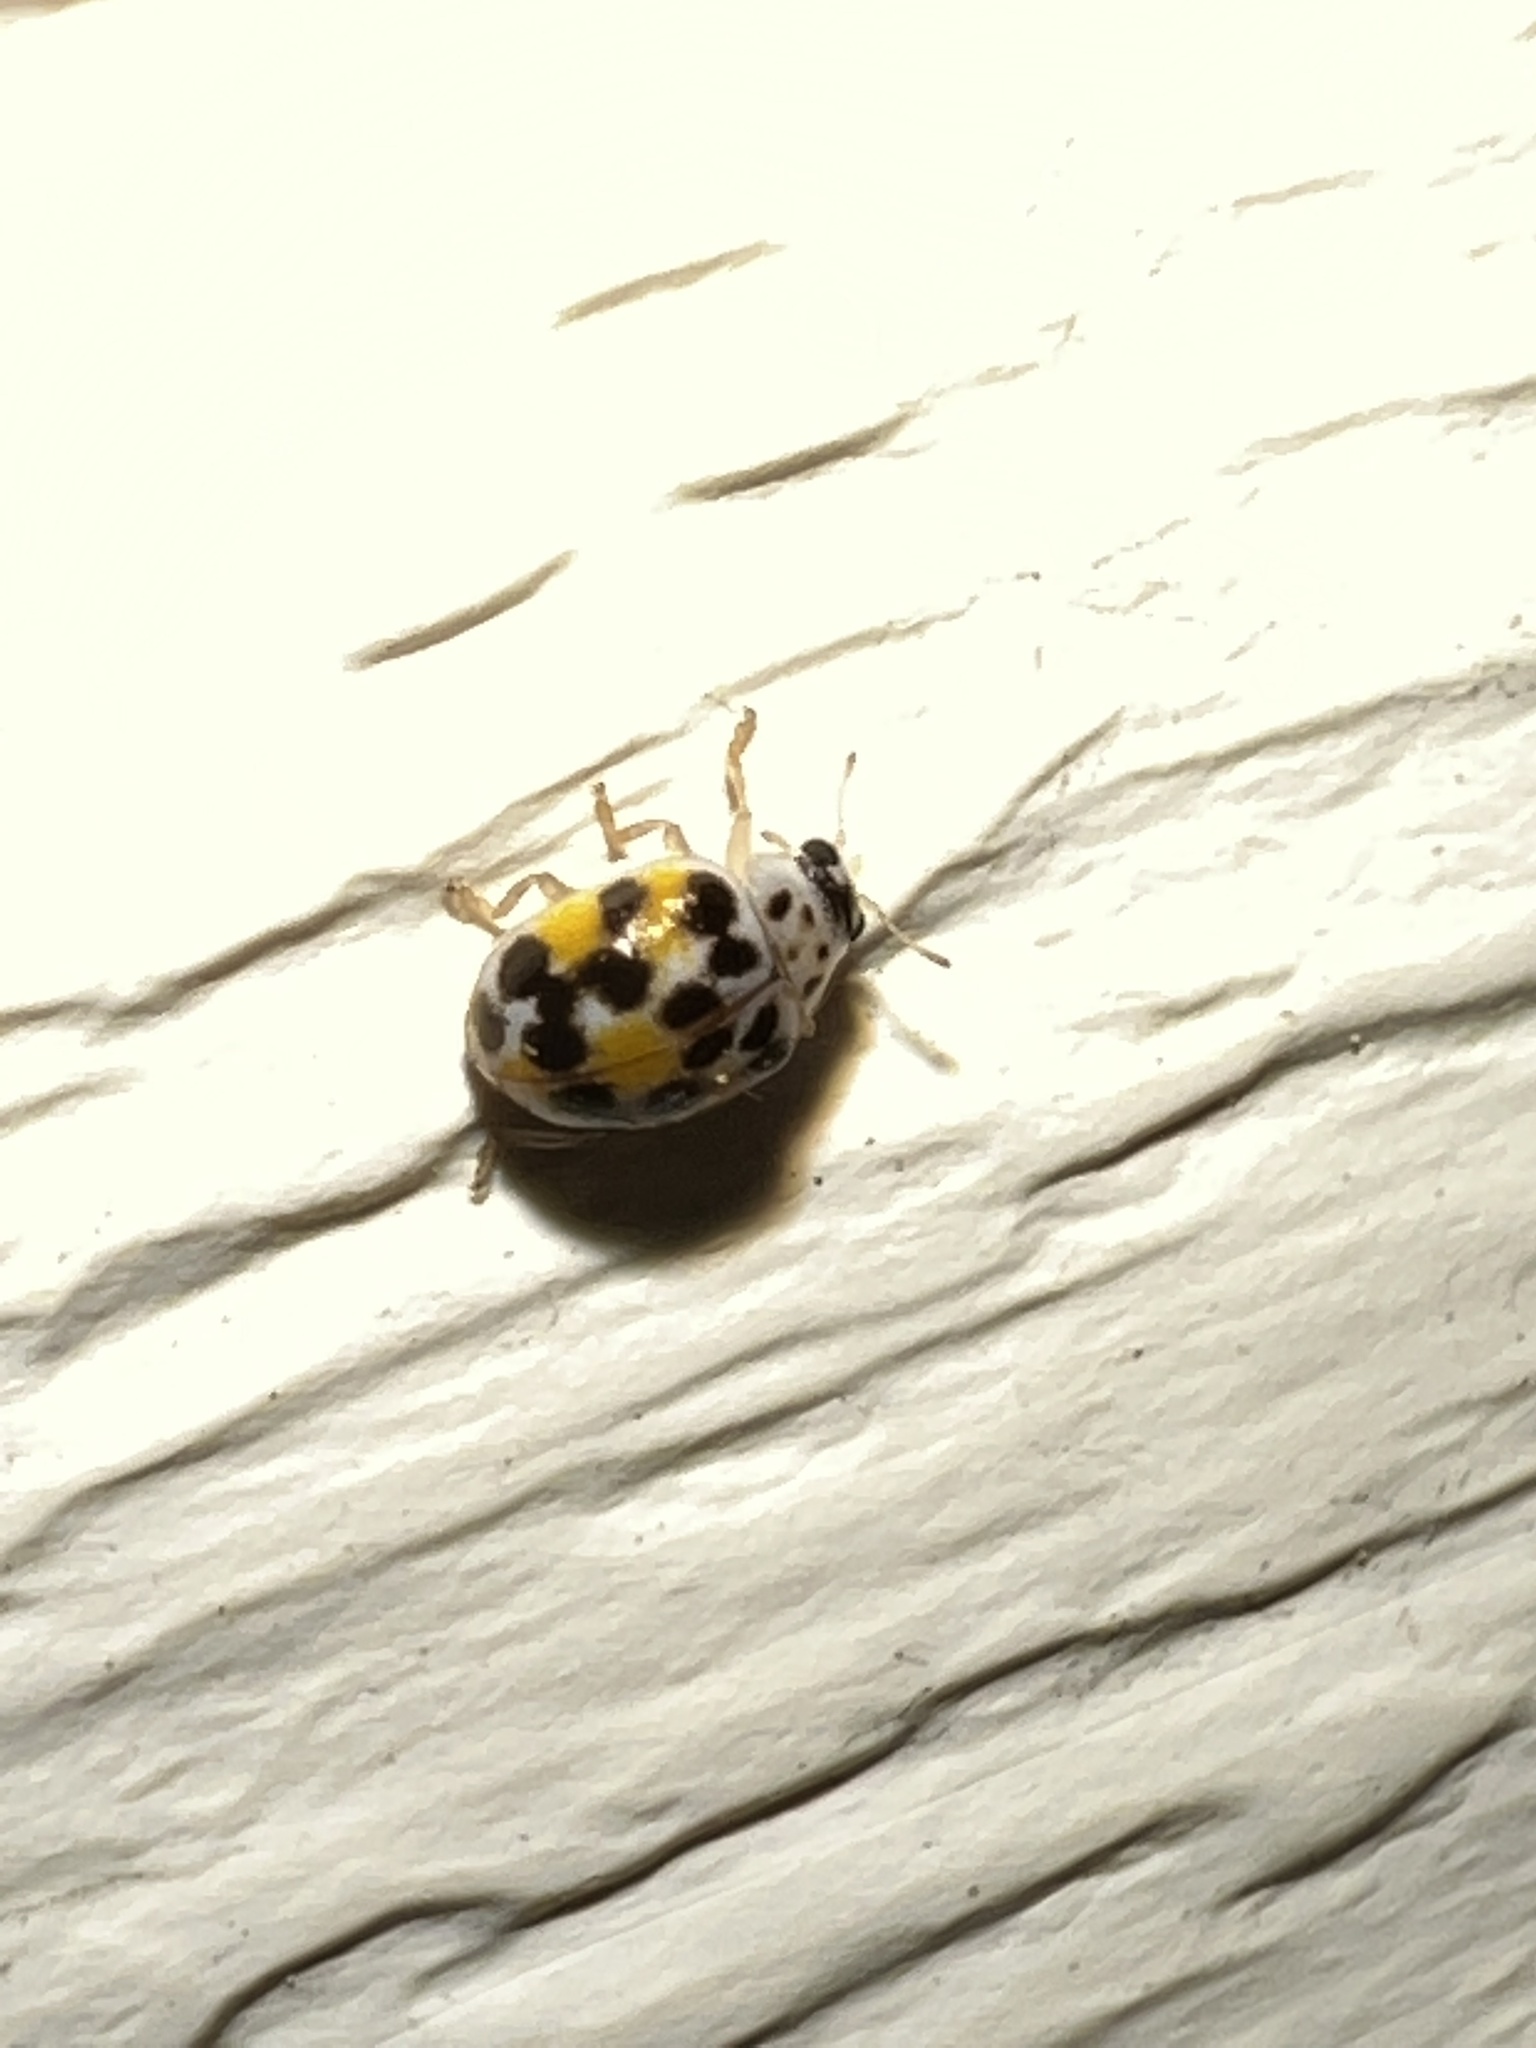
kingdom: Animalia
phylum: Arthropoda
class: Insecta
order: Coleoptera
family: Coccinellidae
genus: Psyllobora
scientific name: Psyllobora vigintimaculata
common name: Ladybird beetle
